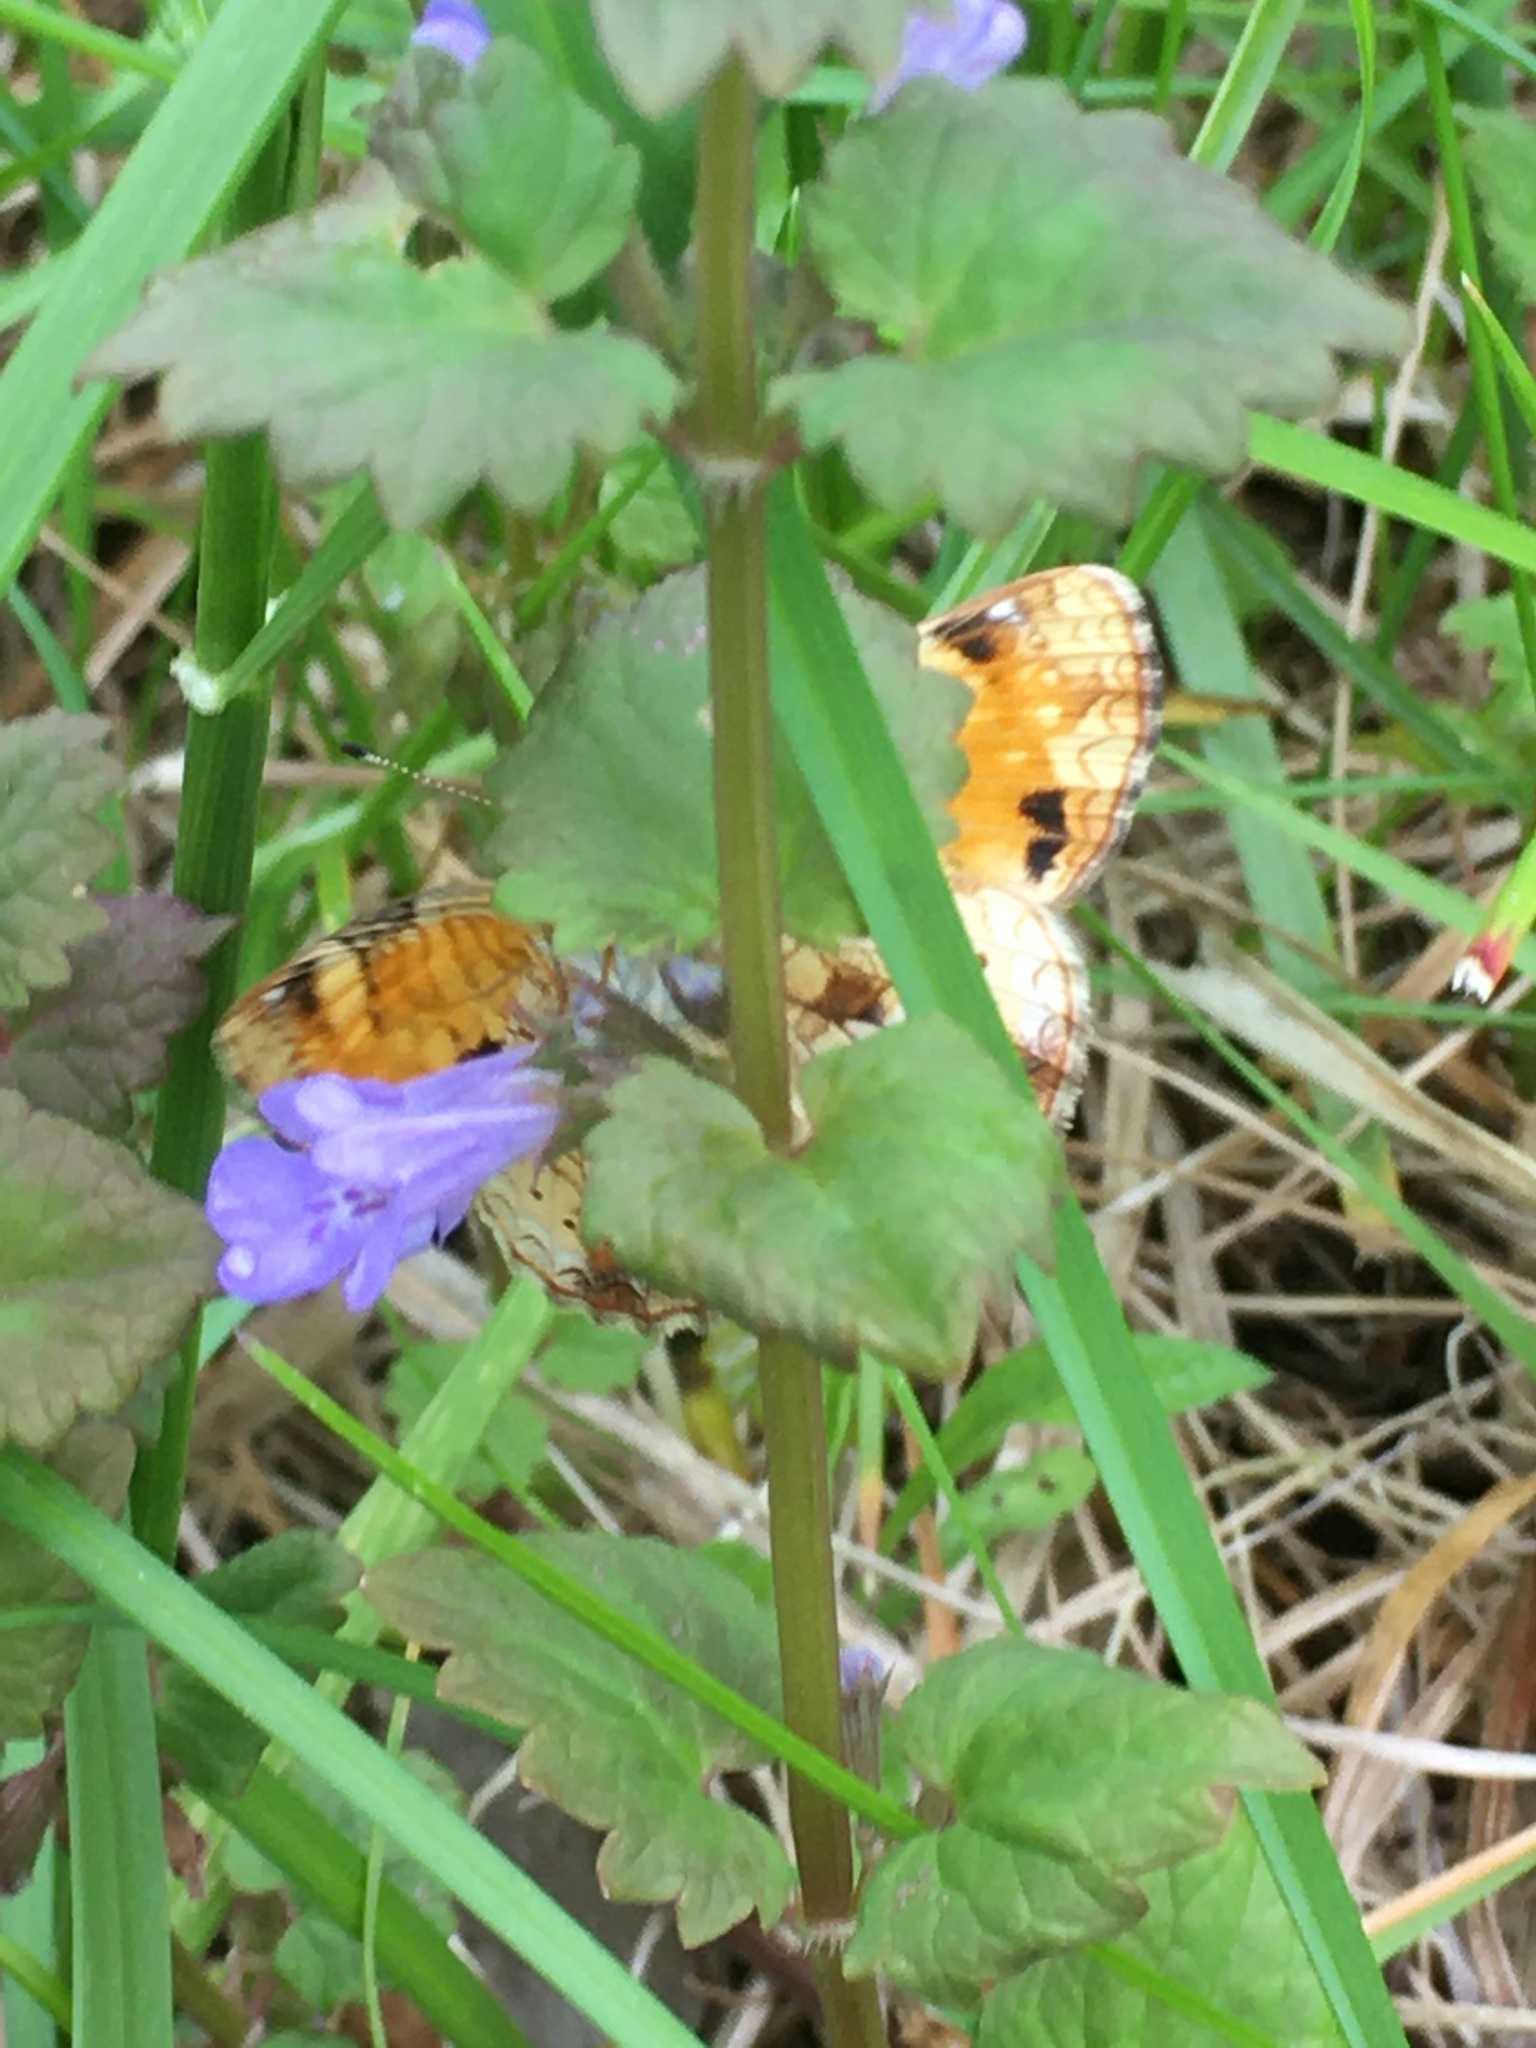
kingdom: Animalia
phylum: Arthropoda
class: Insecta
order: Lepidoptera
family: Nymphalidae
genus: Phyciodes
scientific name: Phyciodes tharos
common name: Pearl crescent
